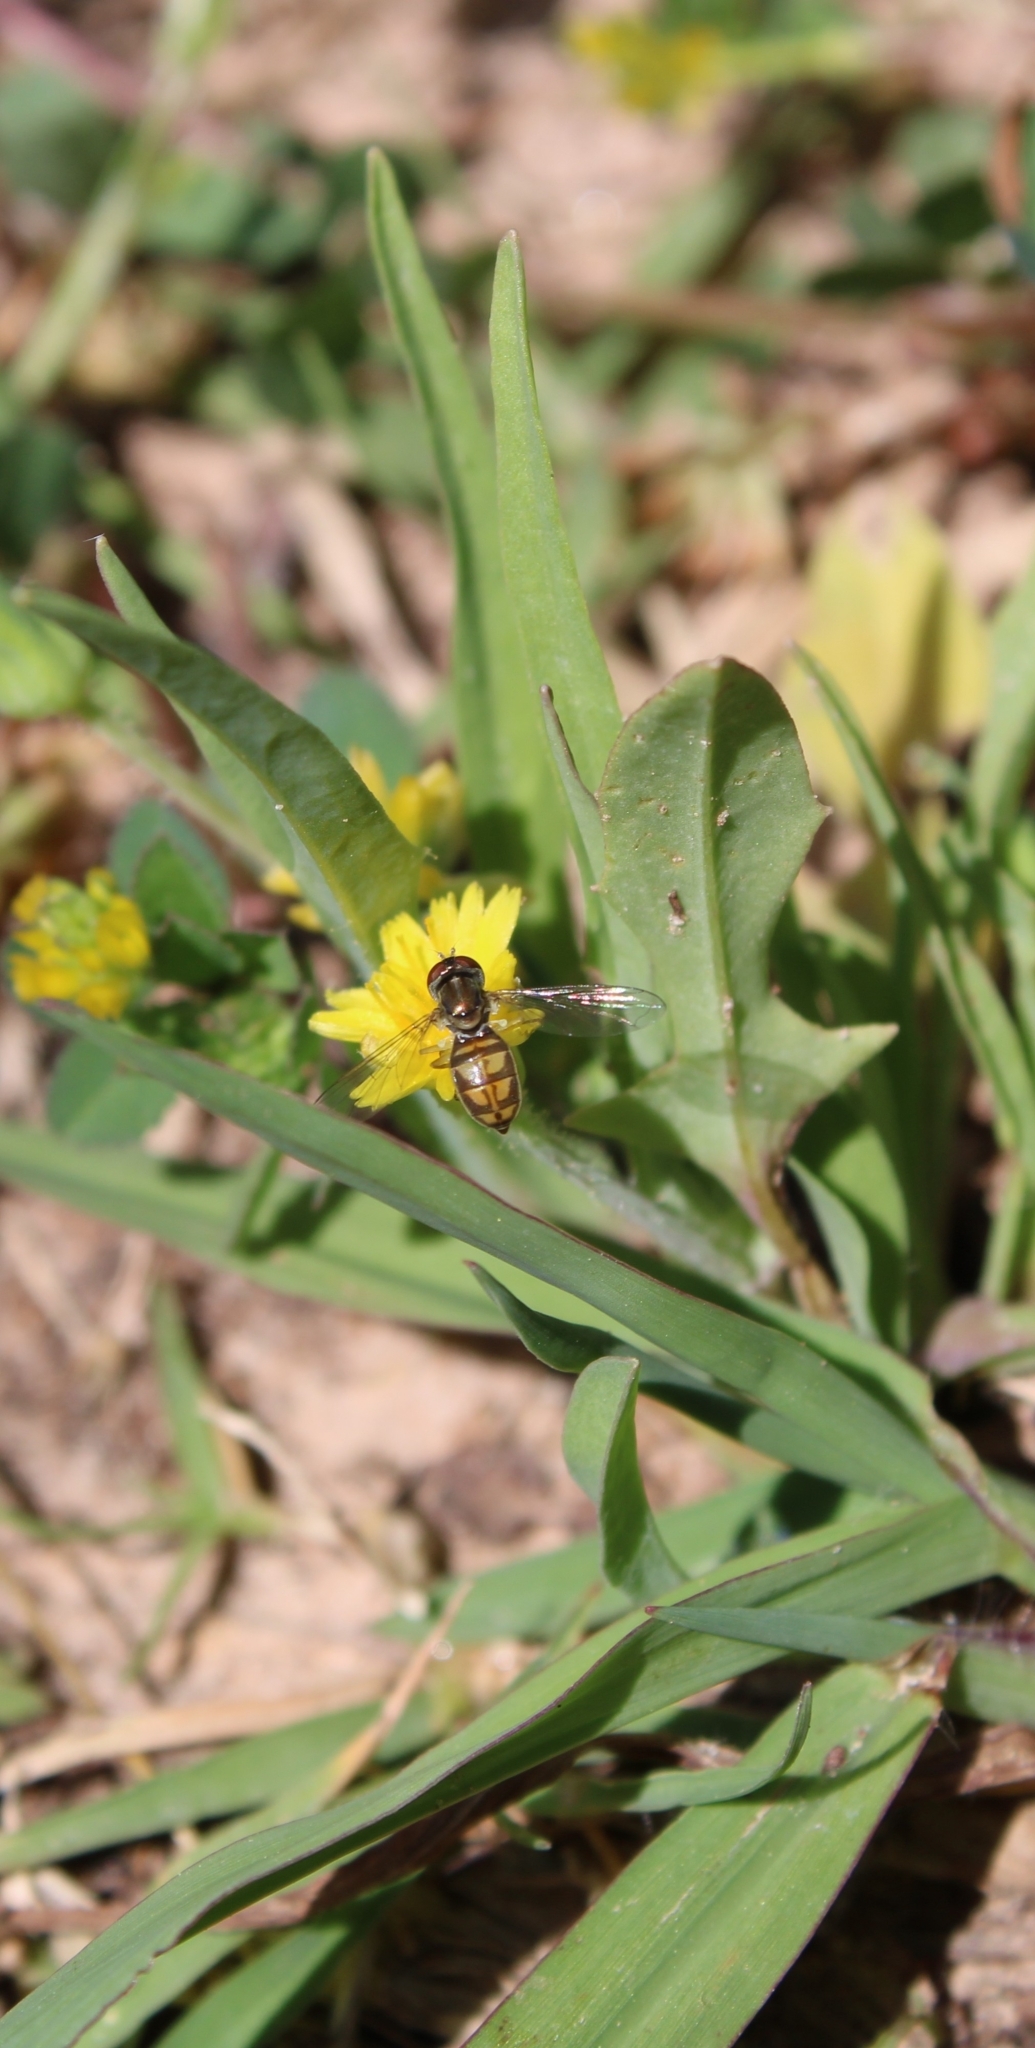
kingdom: Animalia
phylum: Arthropoda
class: Insecta
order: Diptera
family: Syrphidae
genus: Toxomerus
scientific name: Toxomerus marginatus
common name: Syrphid fly
